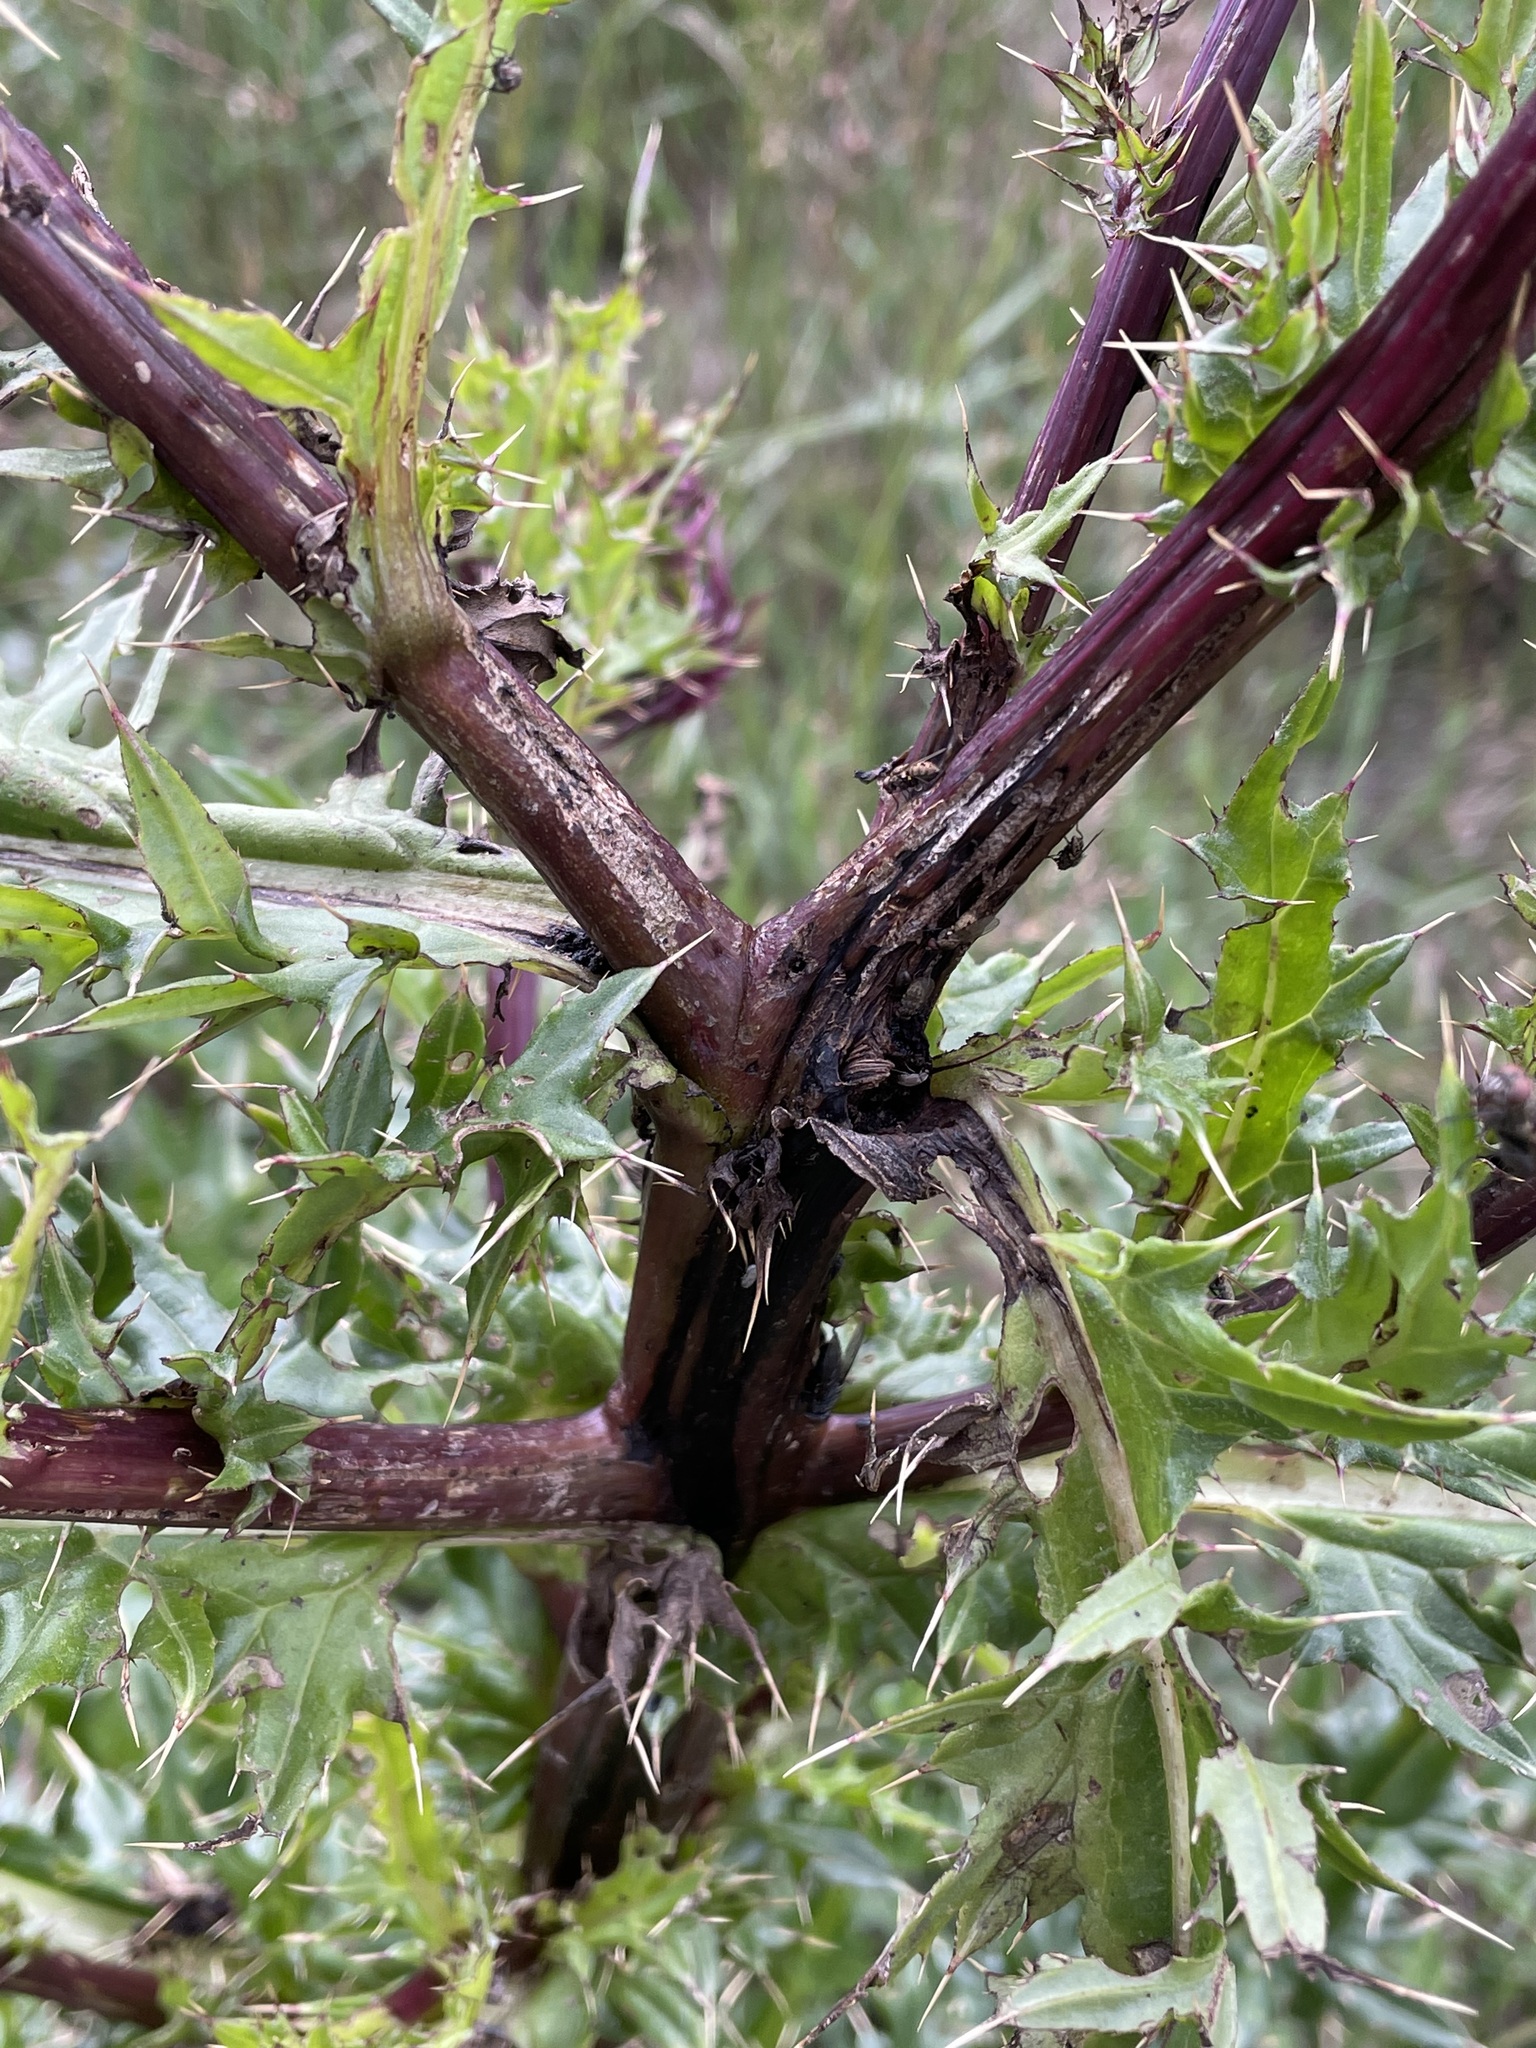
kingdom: Plantae
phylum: Tracheophyta
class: Magnoliopsida
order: Asterales
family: Asteraceae
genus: Cirsium
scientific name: Cirsium vinaceum
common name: Sacramento mountain thistle
